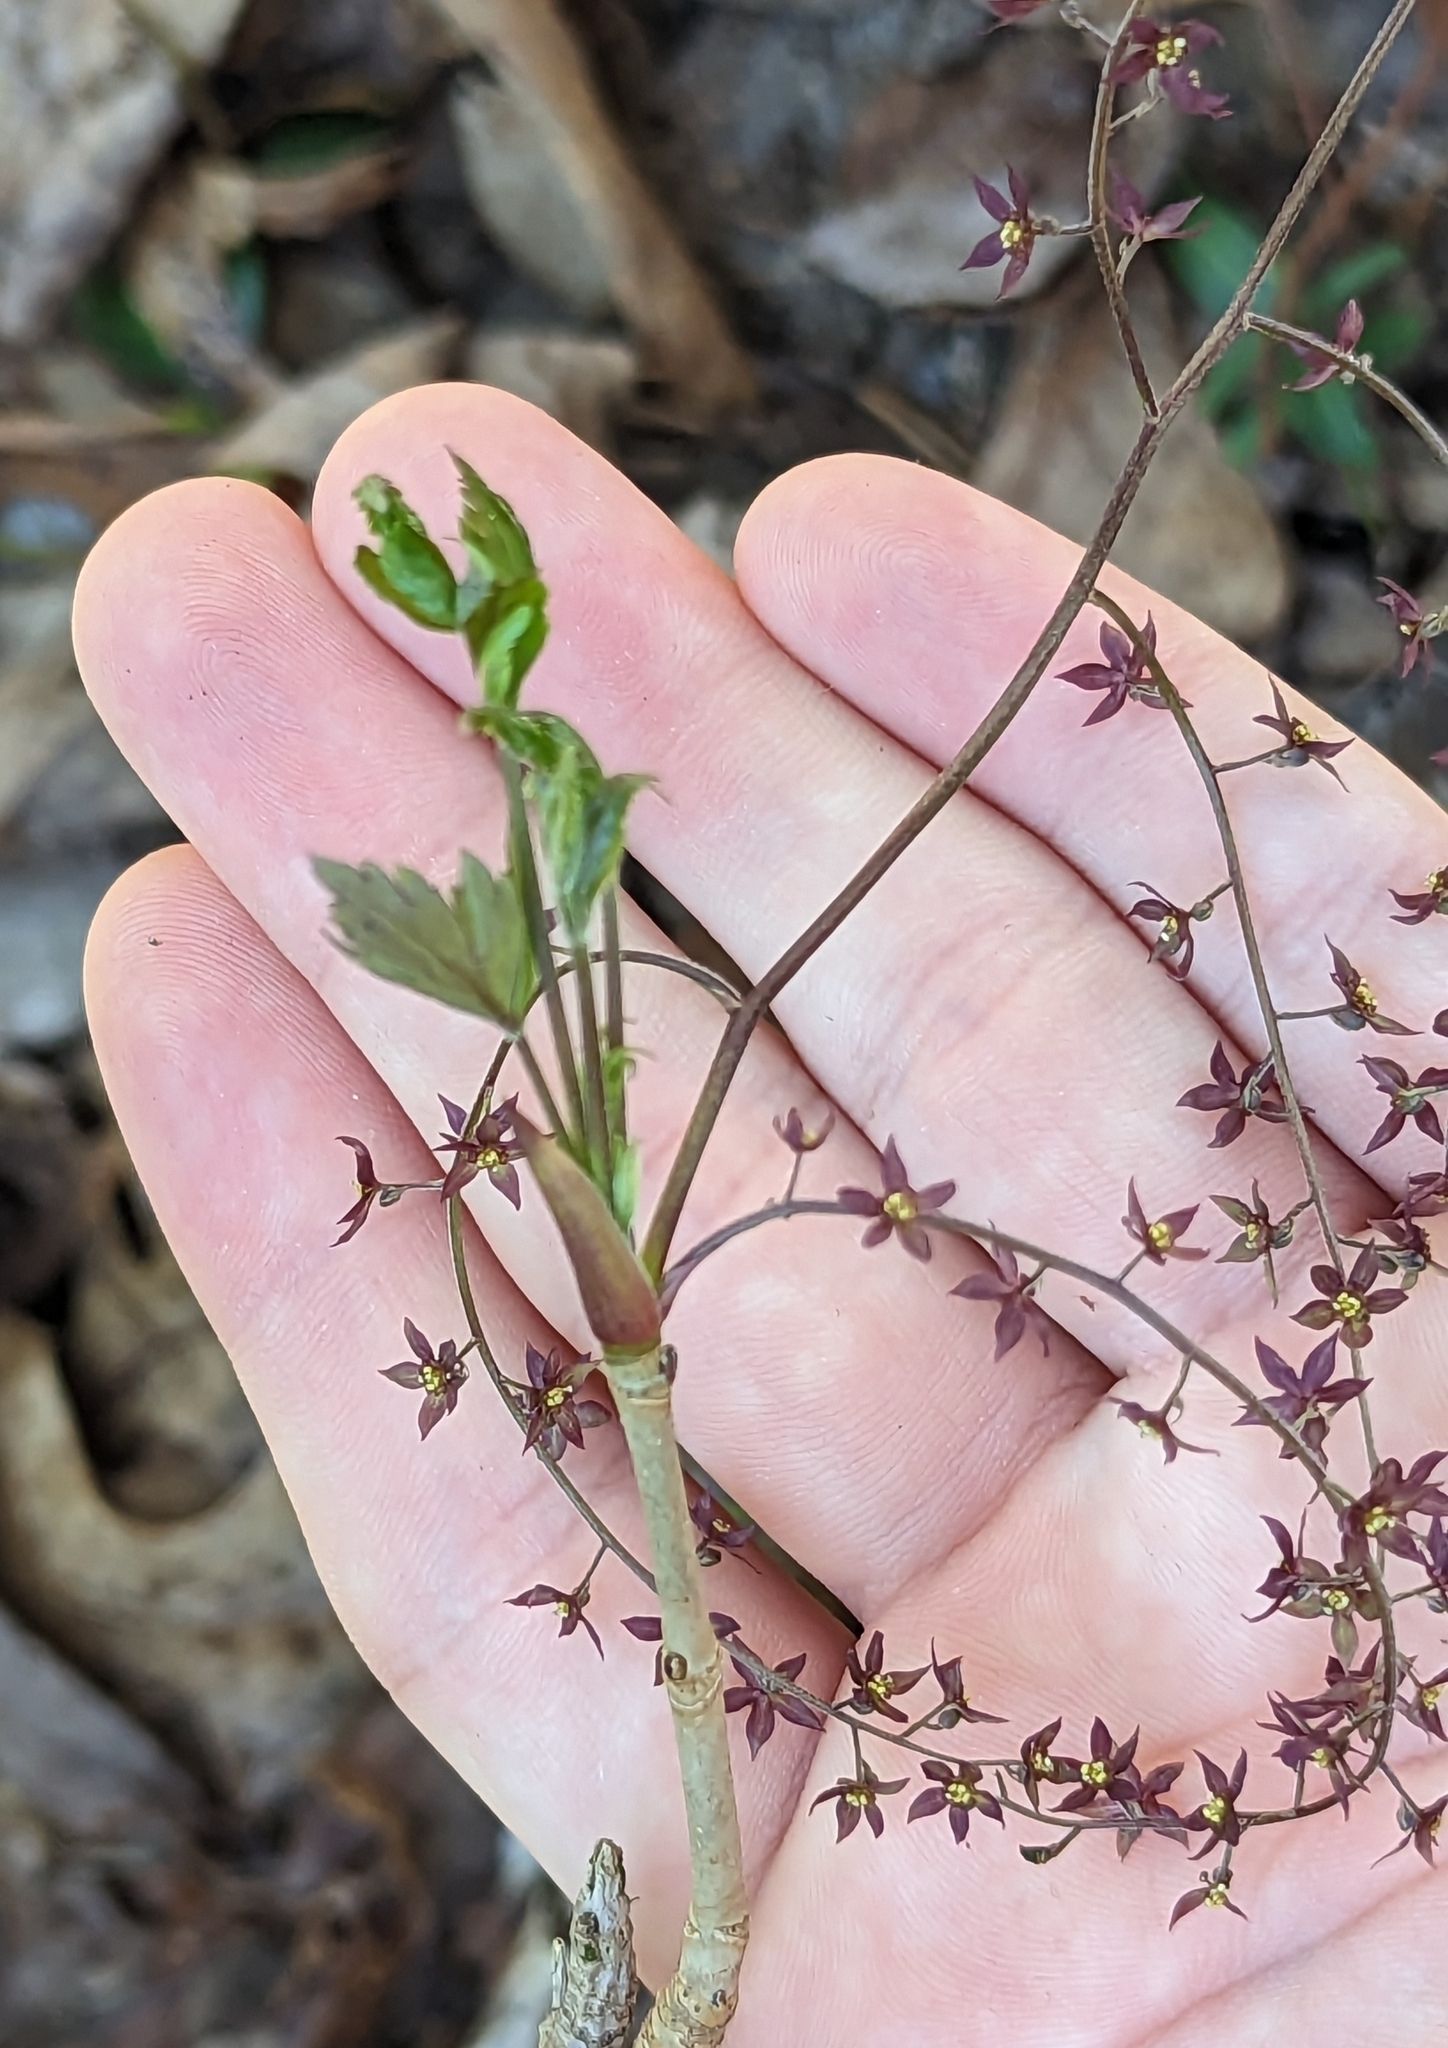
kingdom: Plantae
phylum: Tracheophyta
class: Magnoliopsida
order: Ranunculales
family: Ranunculaceae
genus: Xanthorhiza
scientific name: Xanthorhiza simplicissima
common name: Yellowroot
